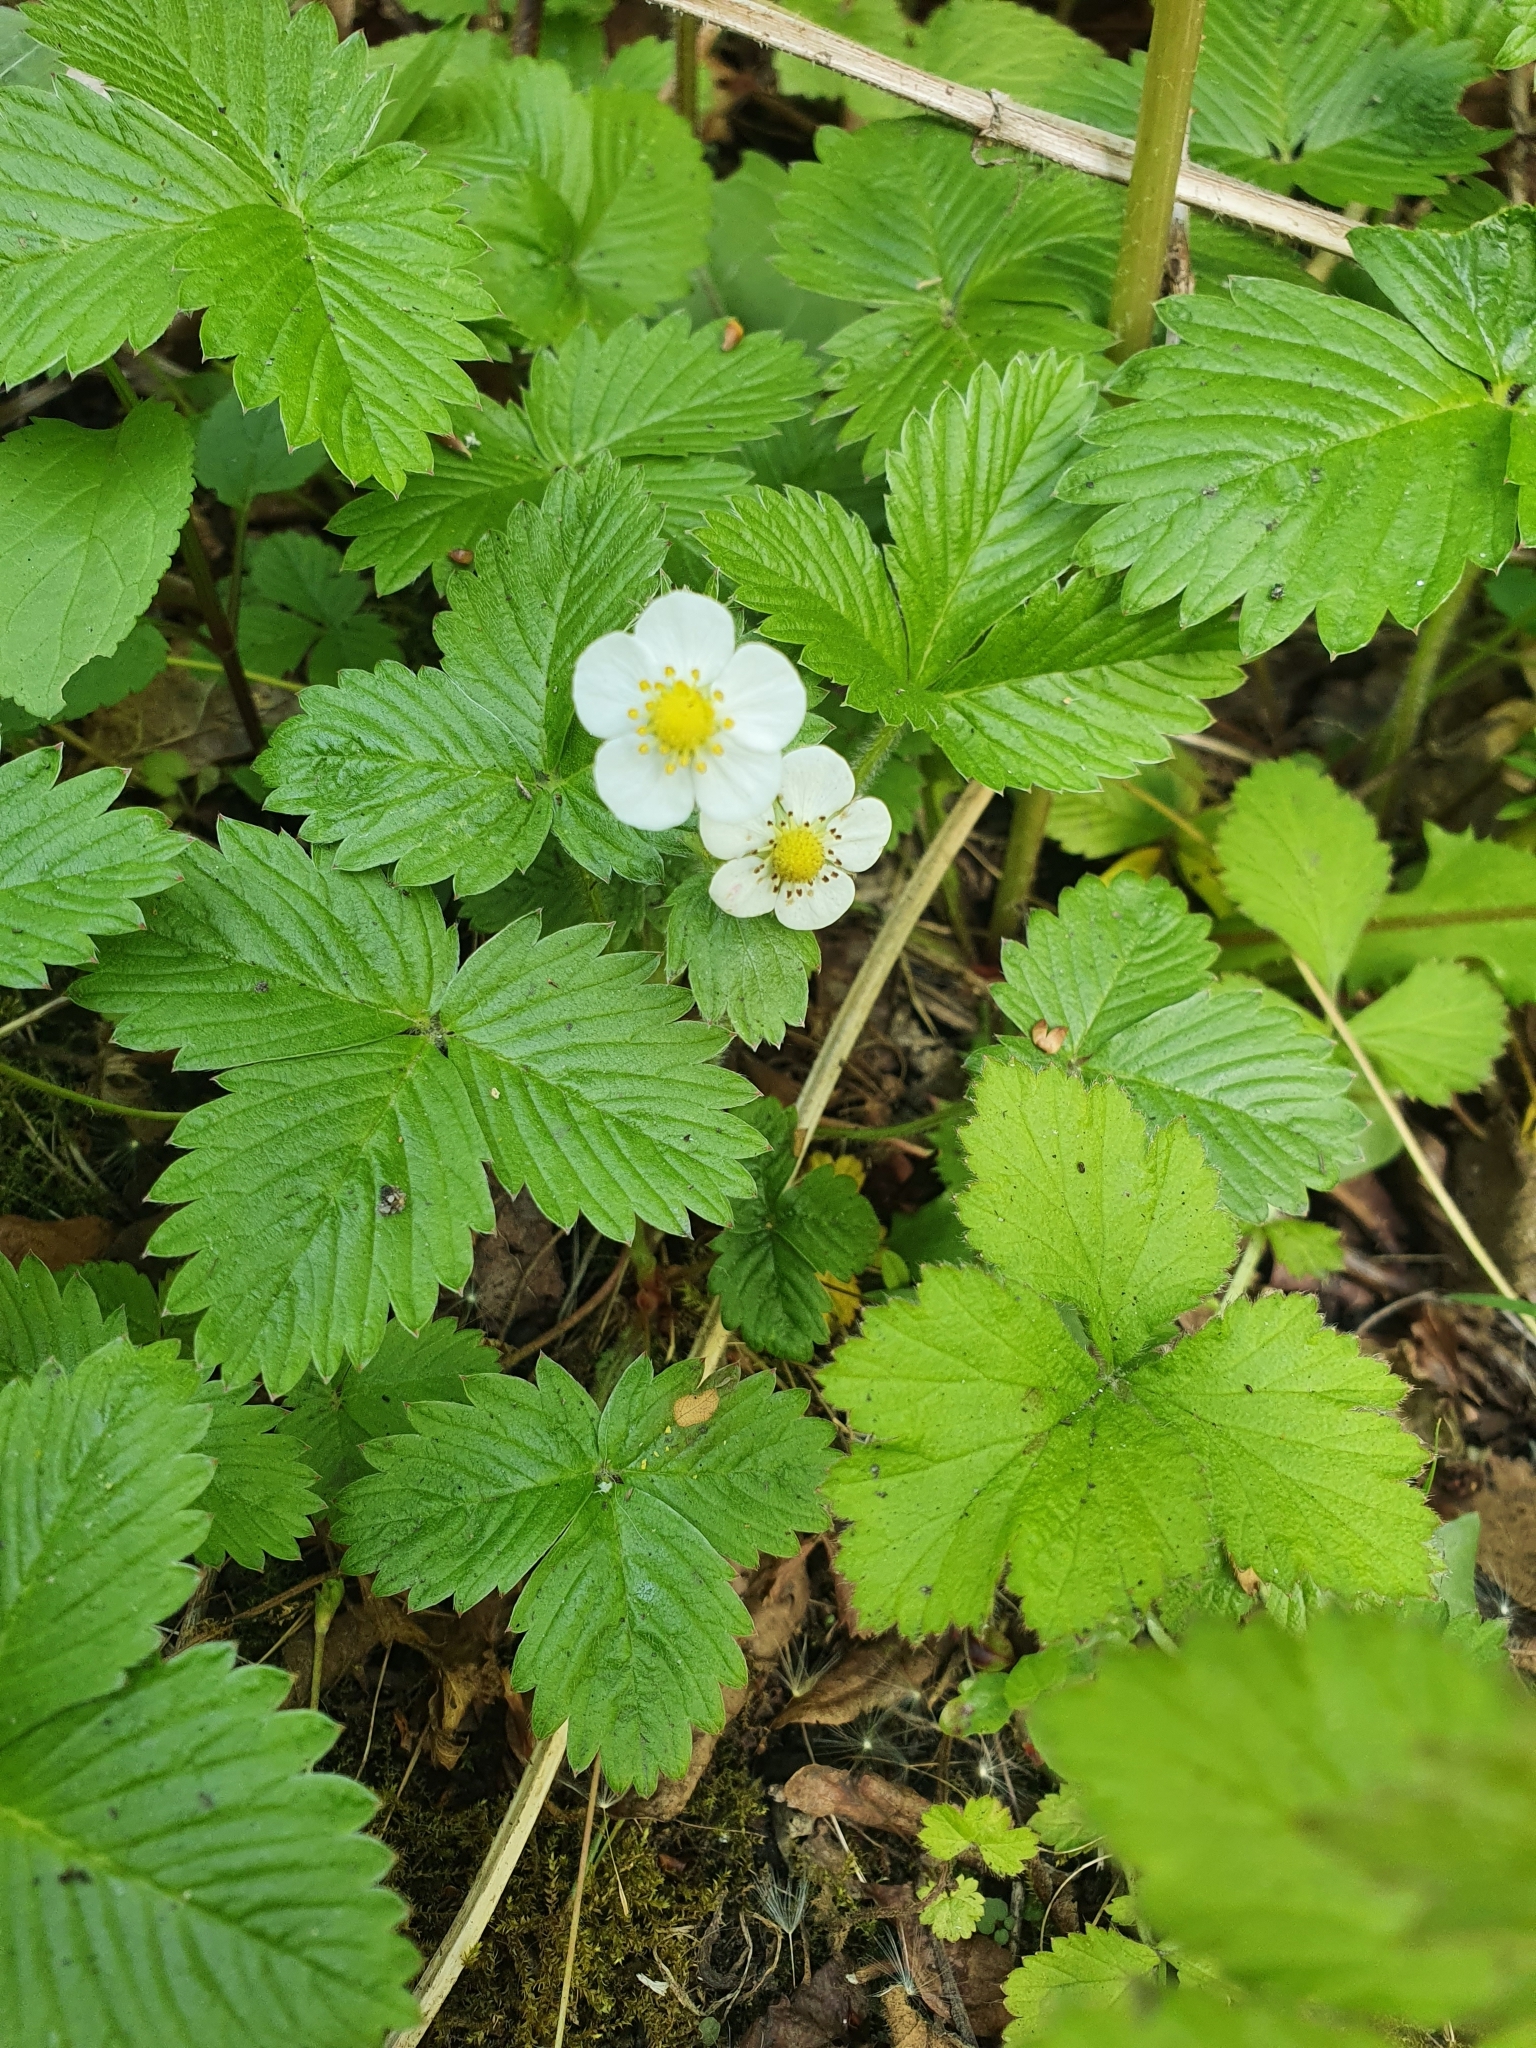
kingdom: Plantae
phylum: Tracheophyta
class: Magnoliopsida
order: Rosales
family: Rosaceae
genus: Fragaria
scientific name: Fragaria vesca
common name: Wild strawberry
